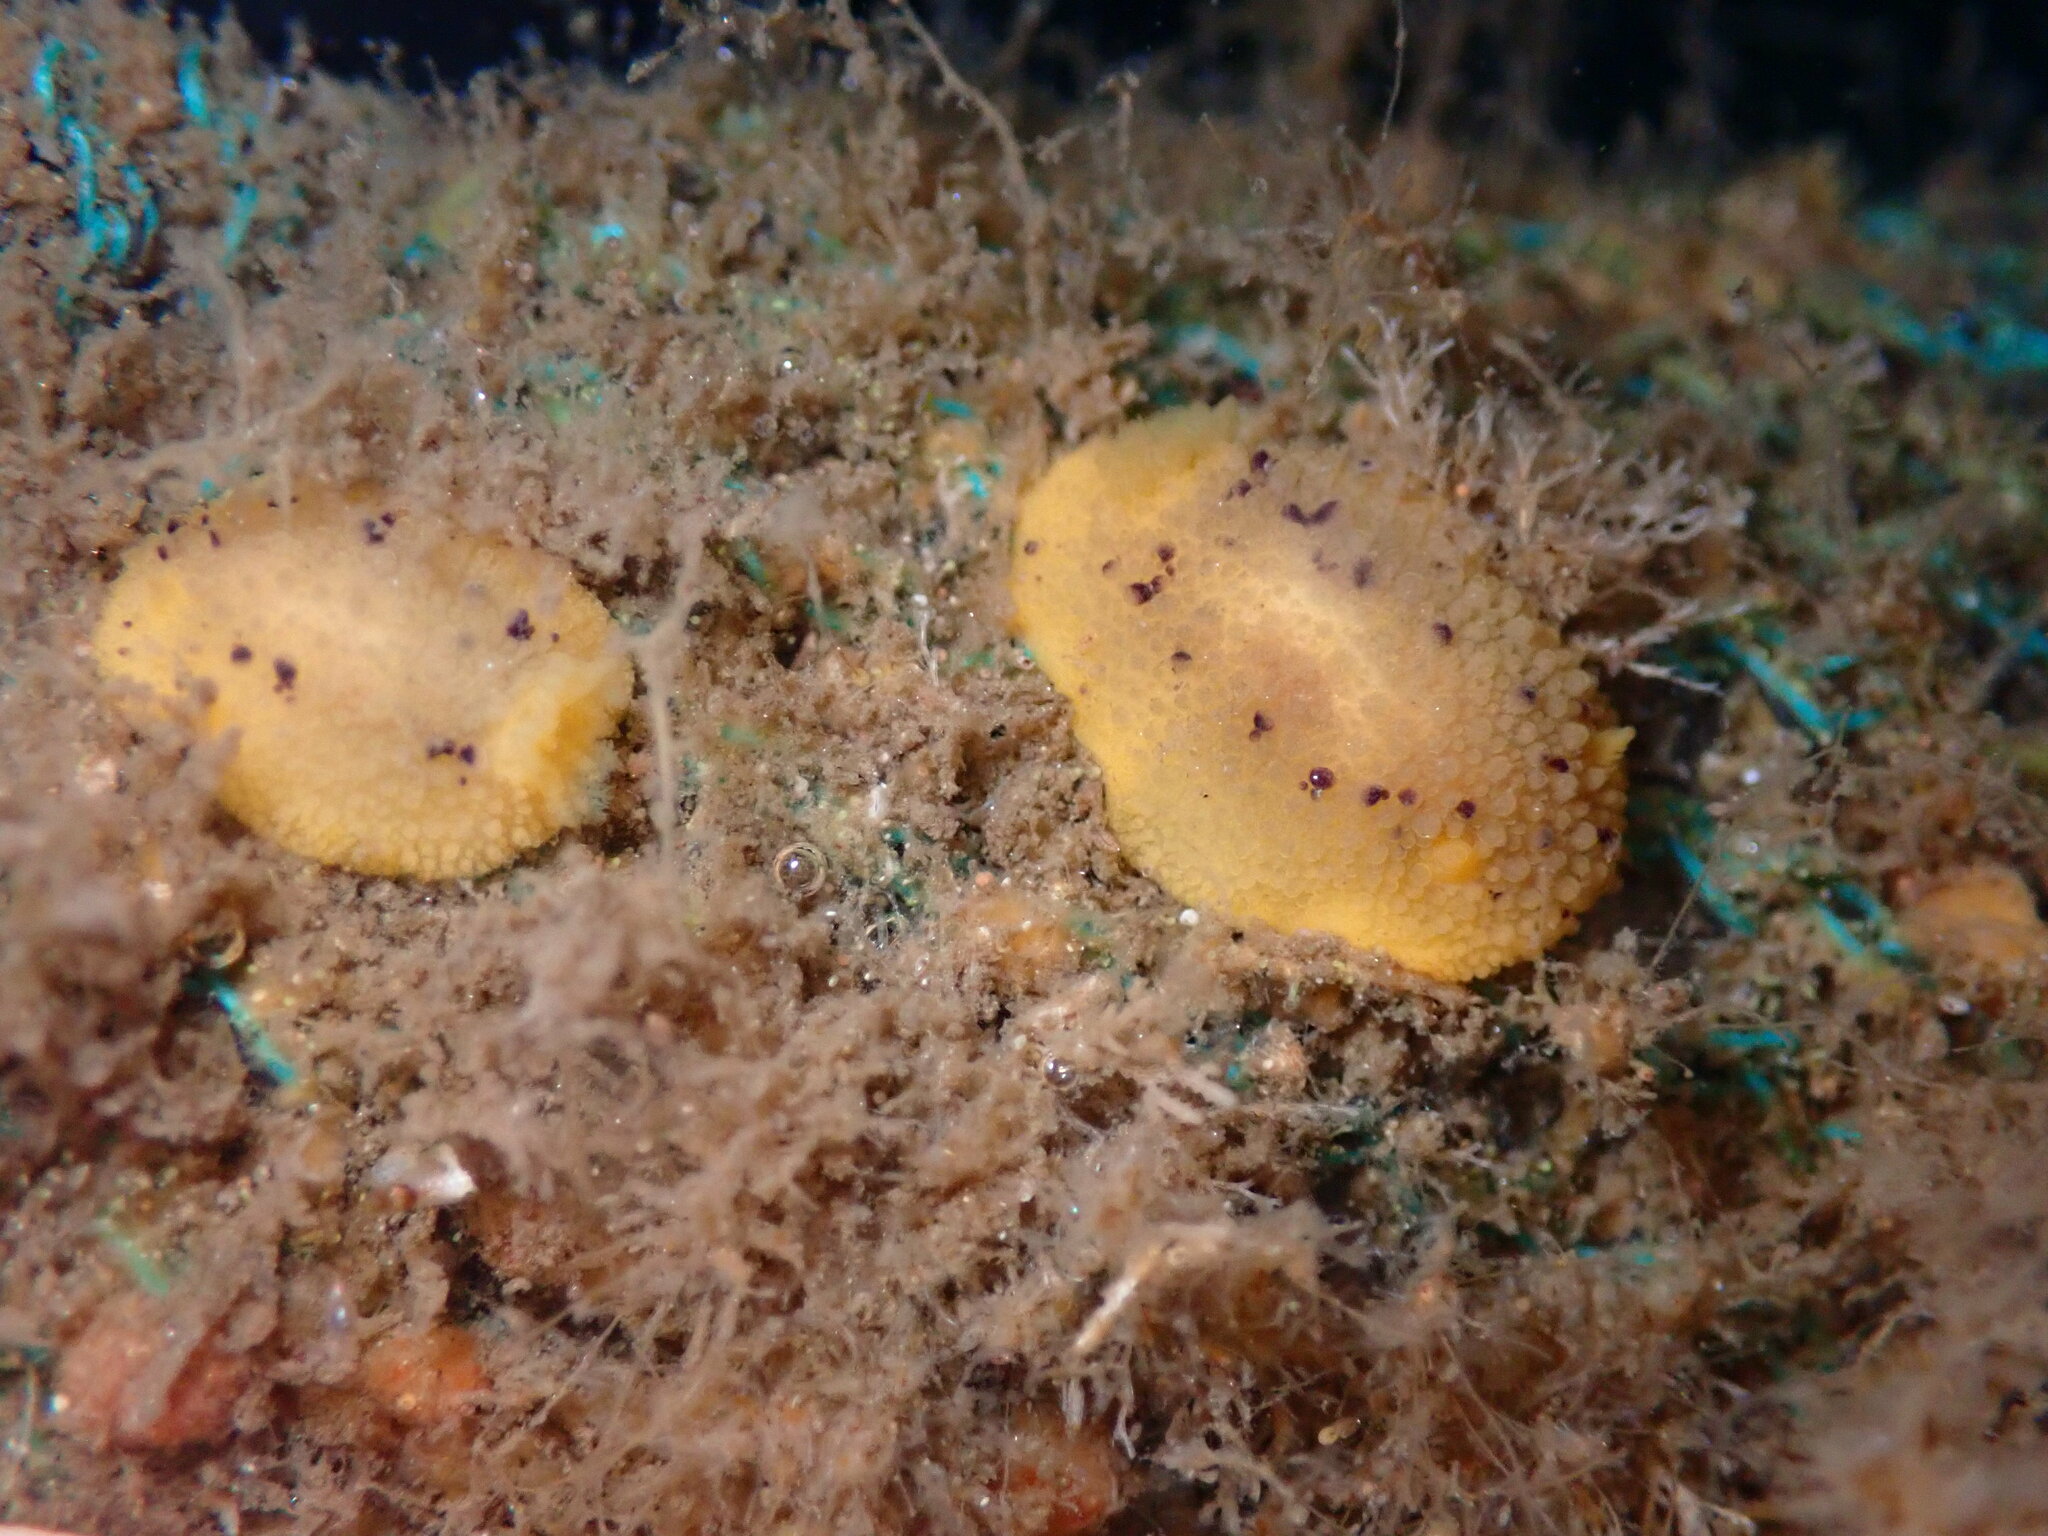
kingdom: Animalia
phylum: Mollusca
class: Gastropoda
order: Nudibranchia
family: Dorididae
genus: Doris
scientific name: Doris montereyensis
